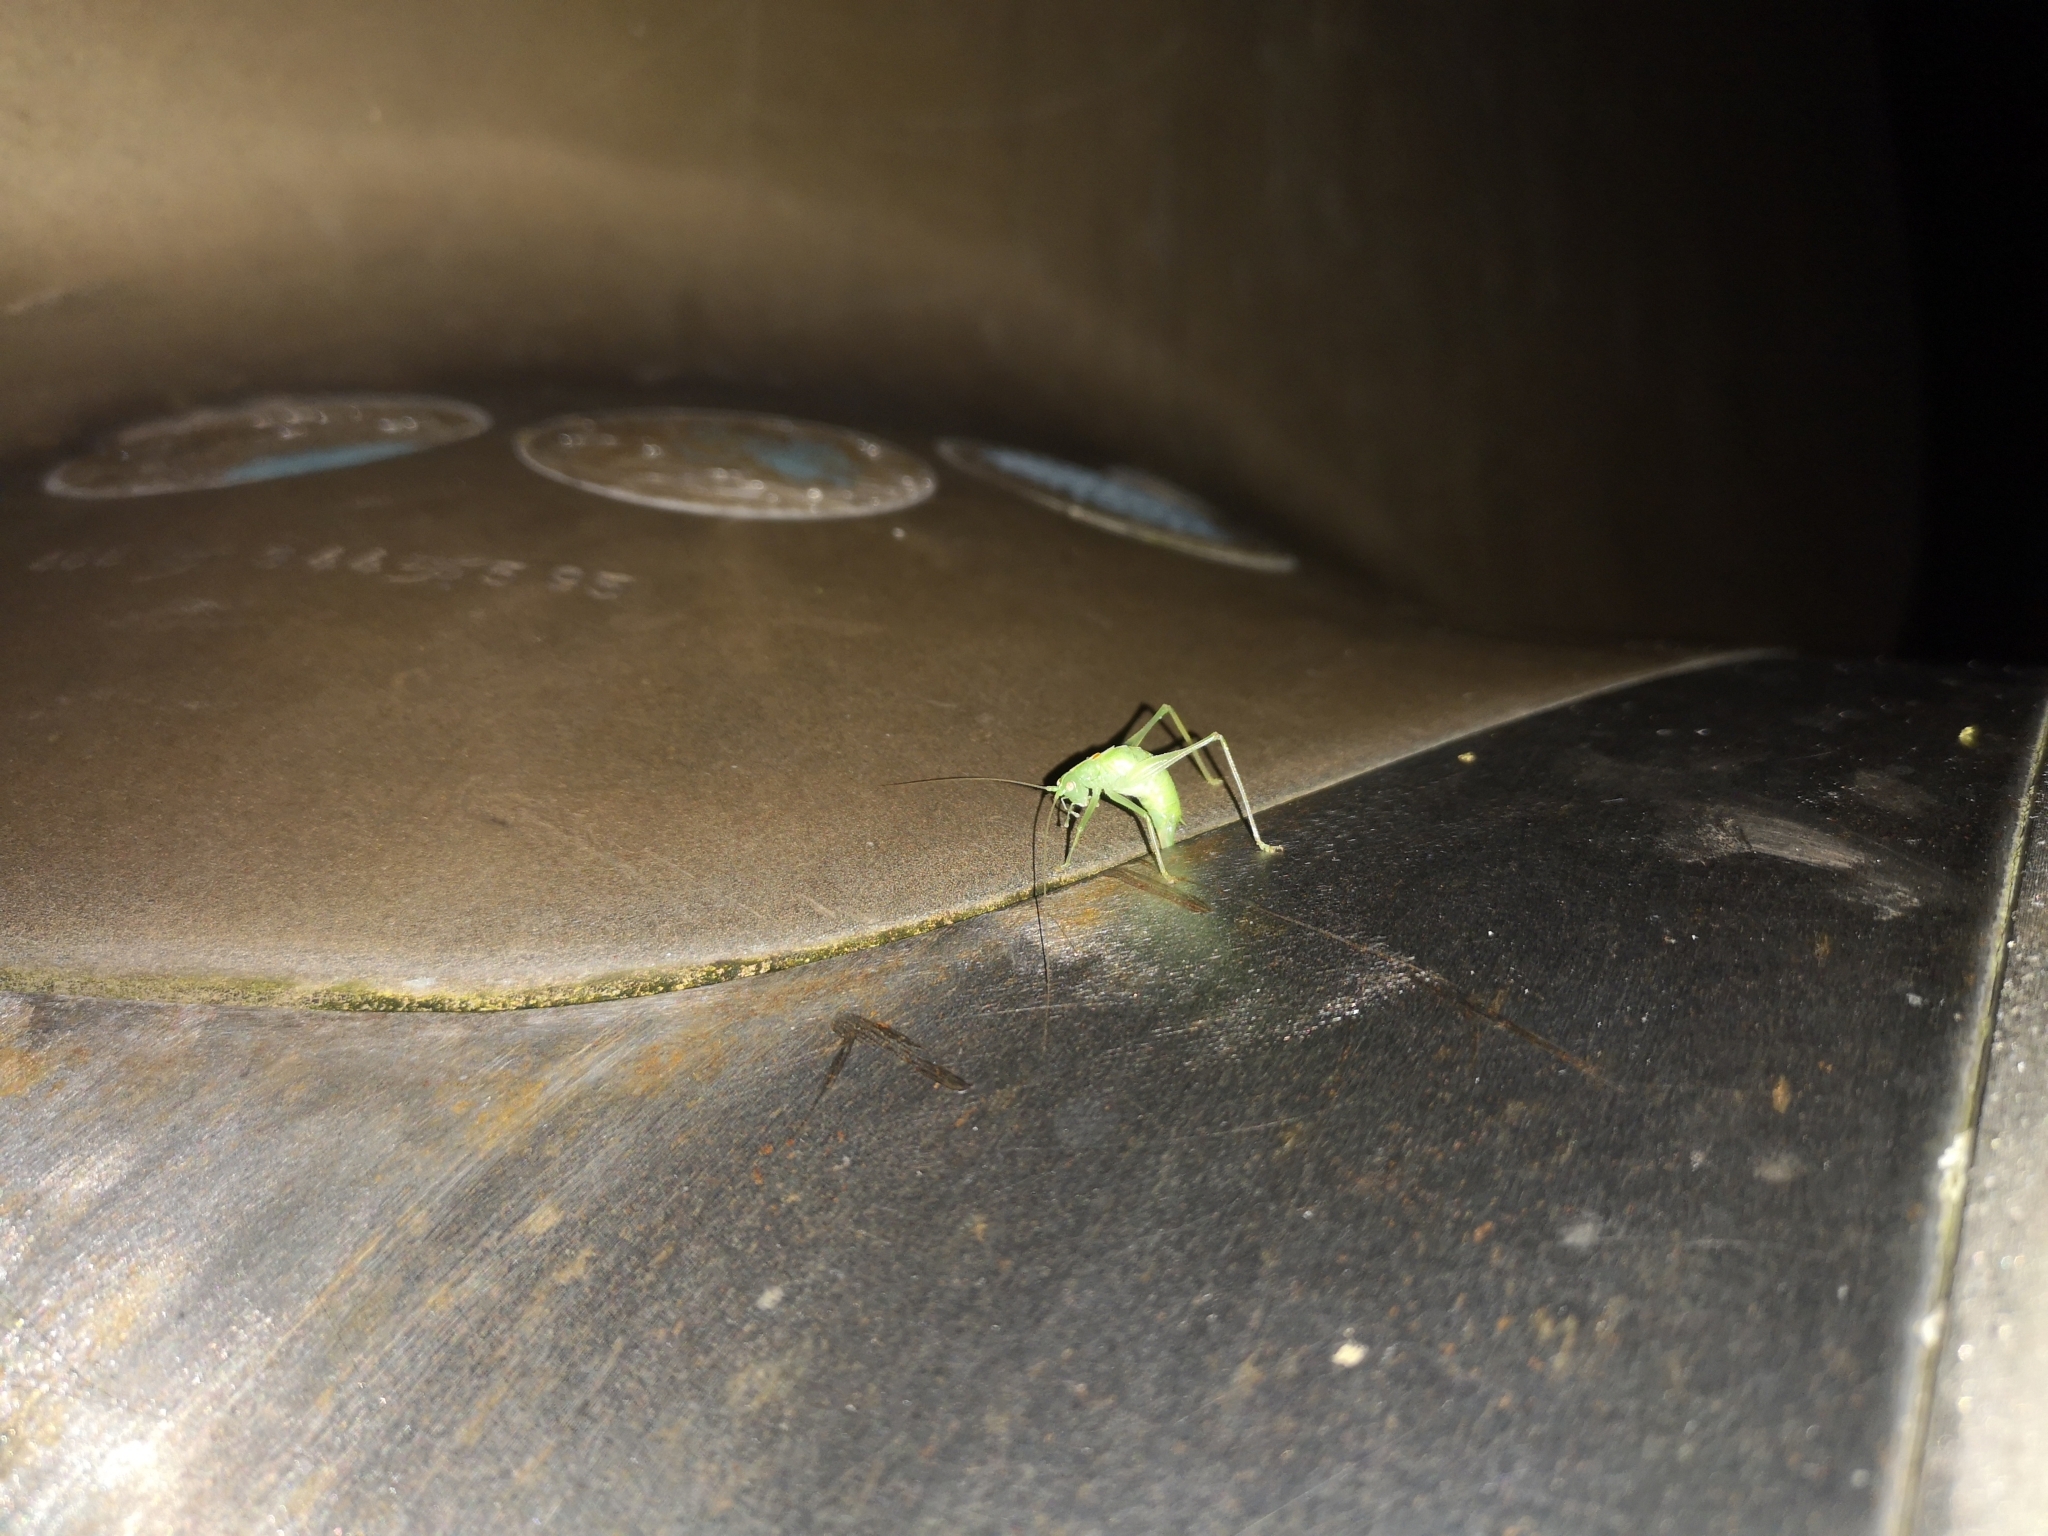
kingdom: Animalia
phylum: Arthropoda
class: Insecta
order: Orthoptera
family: Tettigoniidae
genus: Meconema
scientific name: Meconema meridionale
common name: Southern oak bush-cricket
